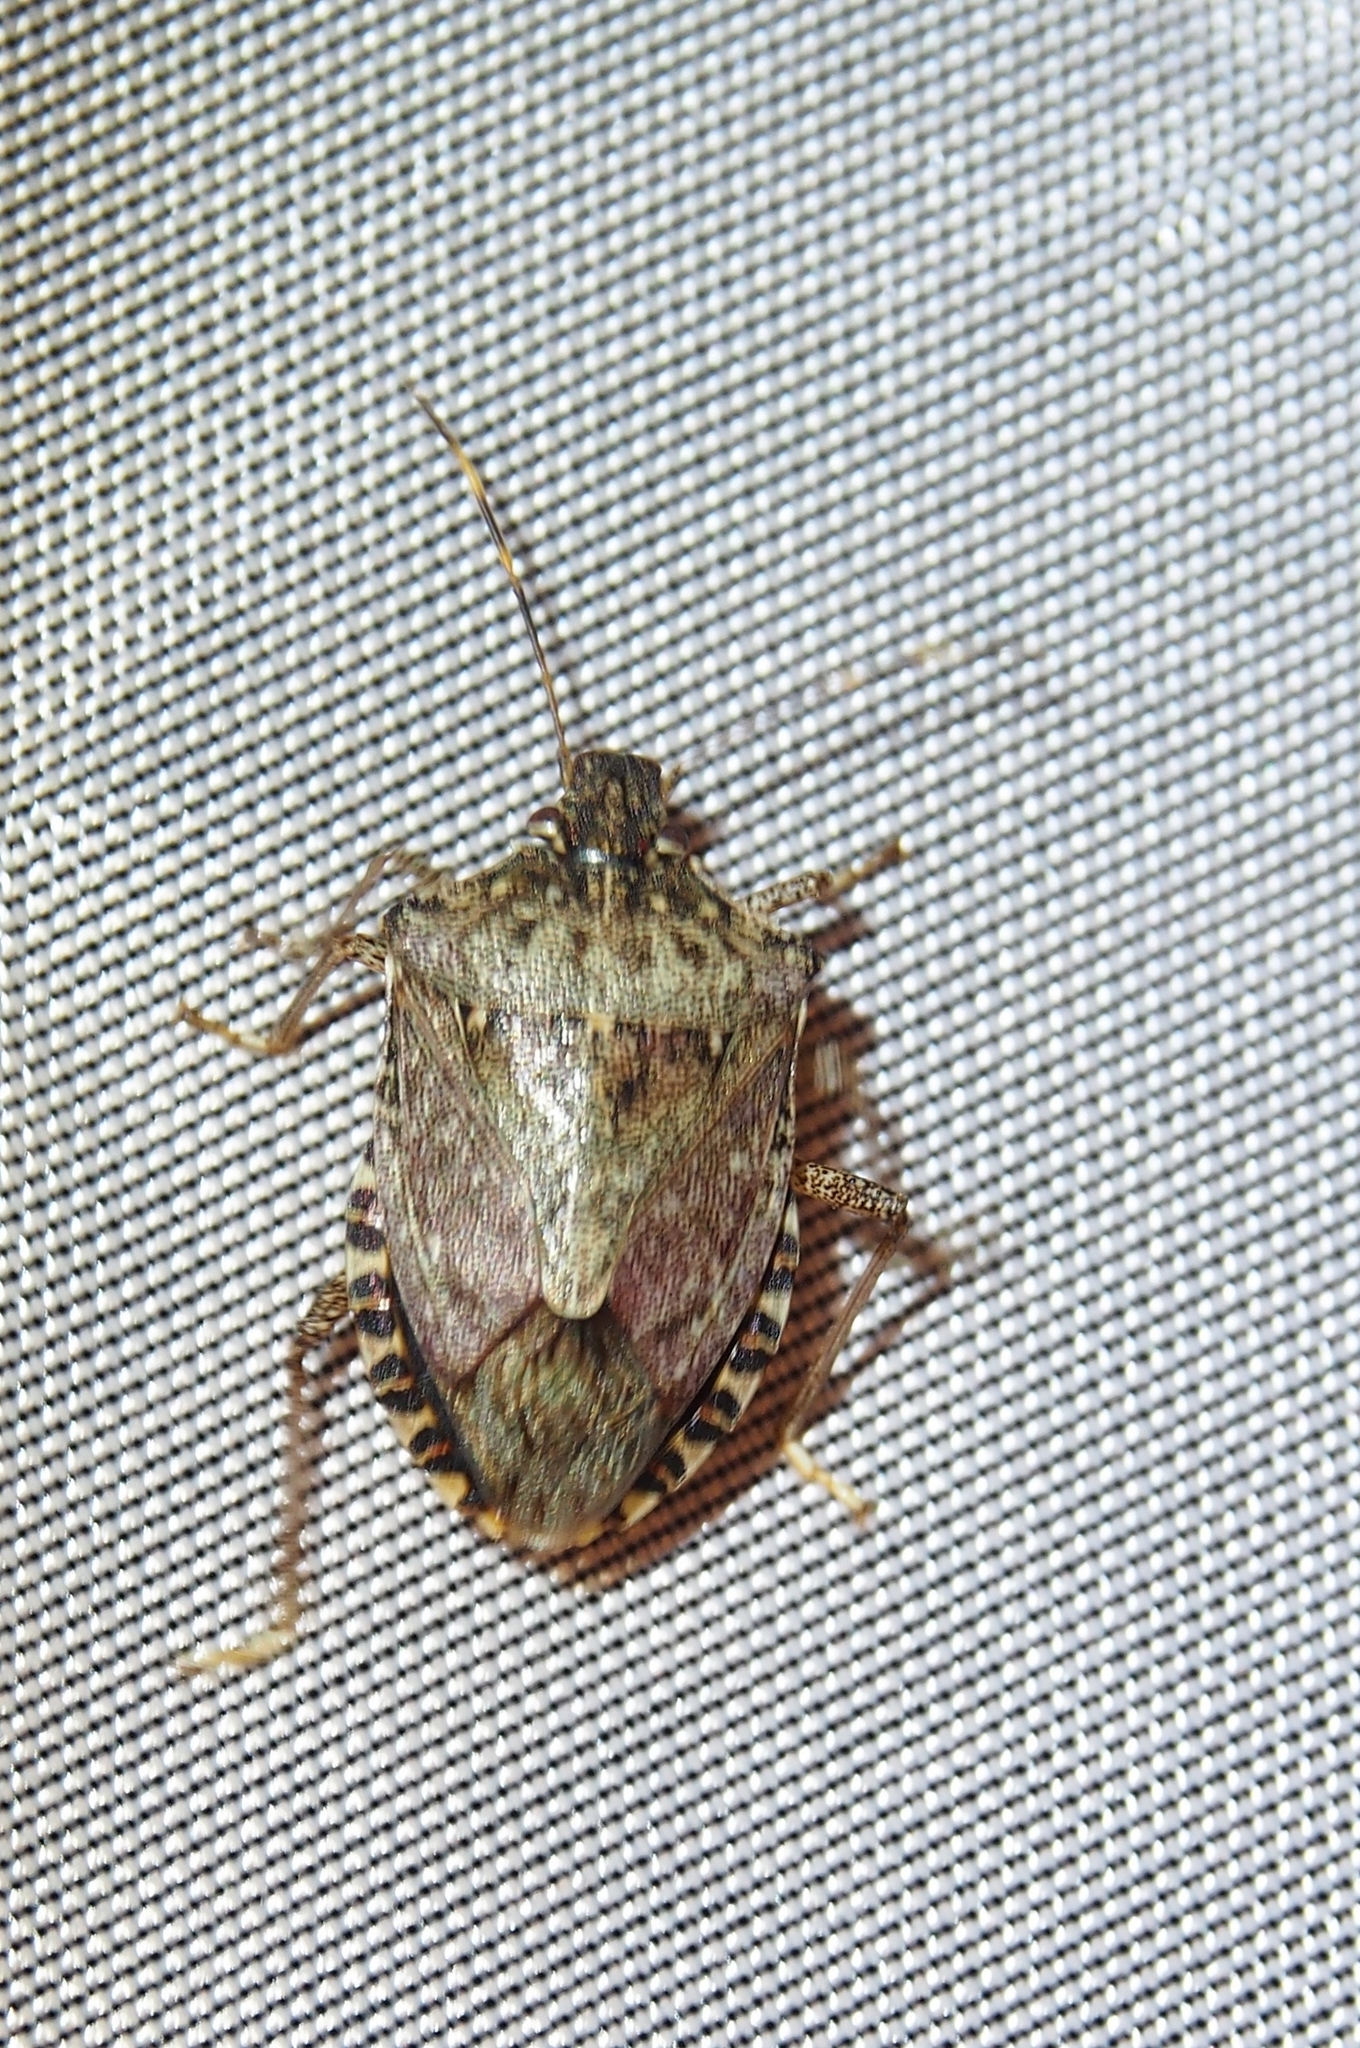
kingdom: Animalia
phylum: Arthropoda
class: Insecta
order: Hemiptera
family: Pentatomidae
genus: Halyomorpha
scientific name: Halyomorpha halys
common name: Brown marmorated stink bug
